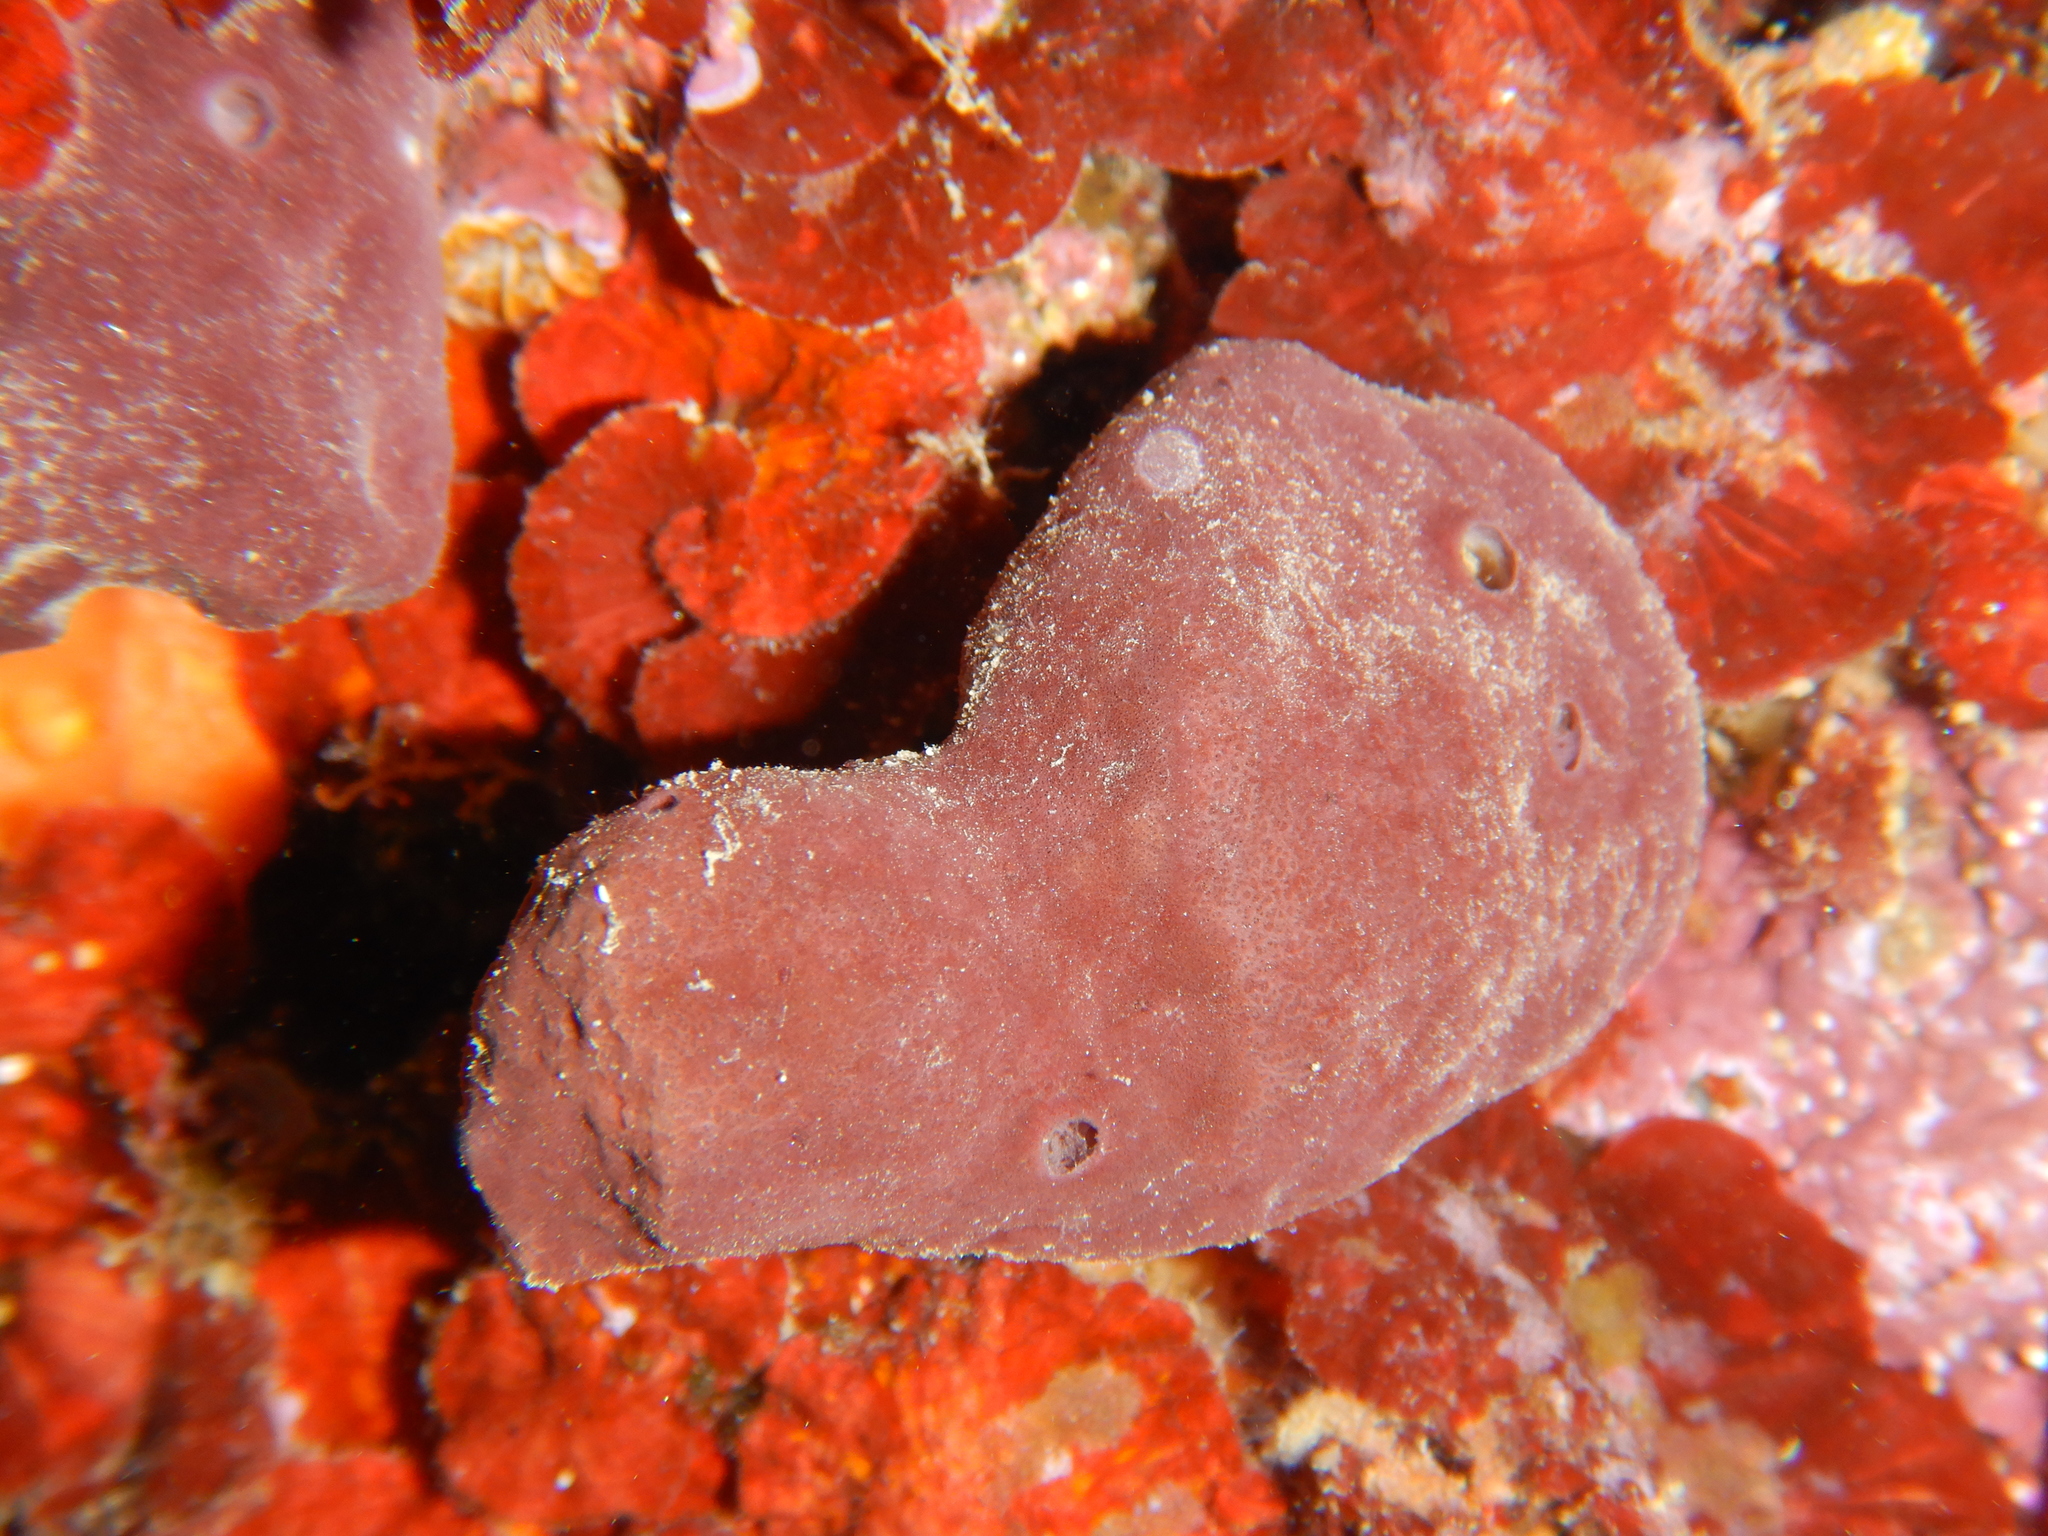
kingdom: Animalia
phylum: Porifera
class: Demospongiae
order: Haplosclerida
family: Petrosiidae
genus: Petrosia
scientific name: Petrosia ficiformis
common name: Stony sponge
